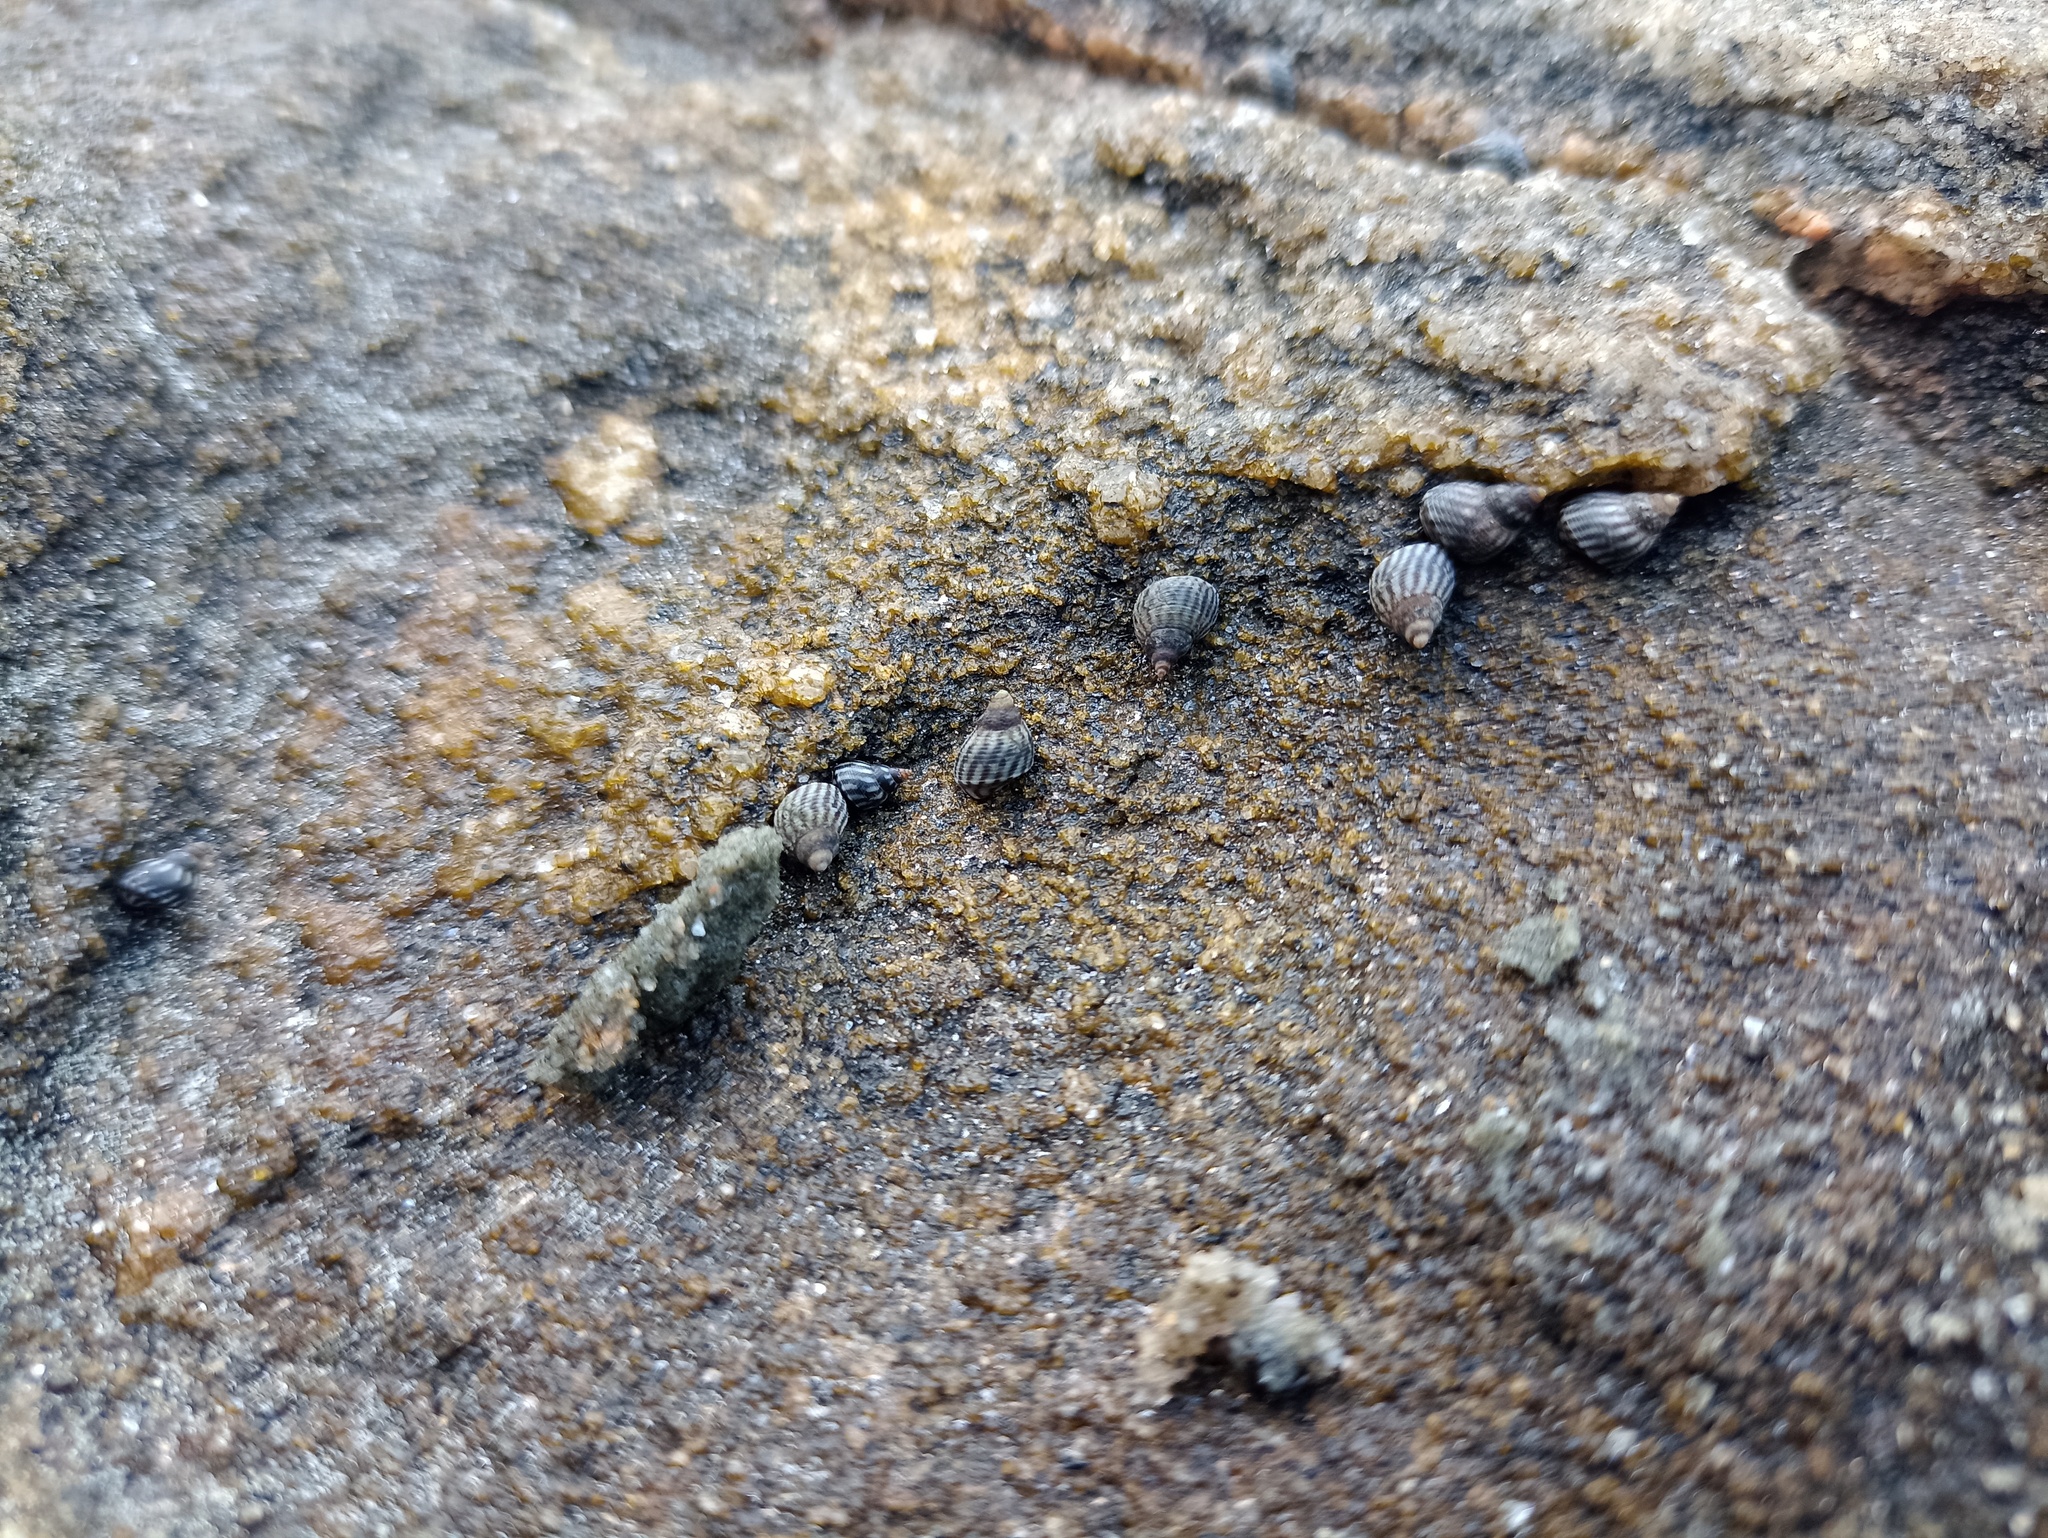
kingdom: Animalia
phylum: Mollusca
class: Gastropoda
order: Littorinimorpha
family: Littorinidae
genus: Echinolittorina
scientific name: Echinolittorina lineolata
